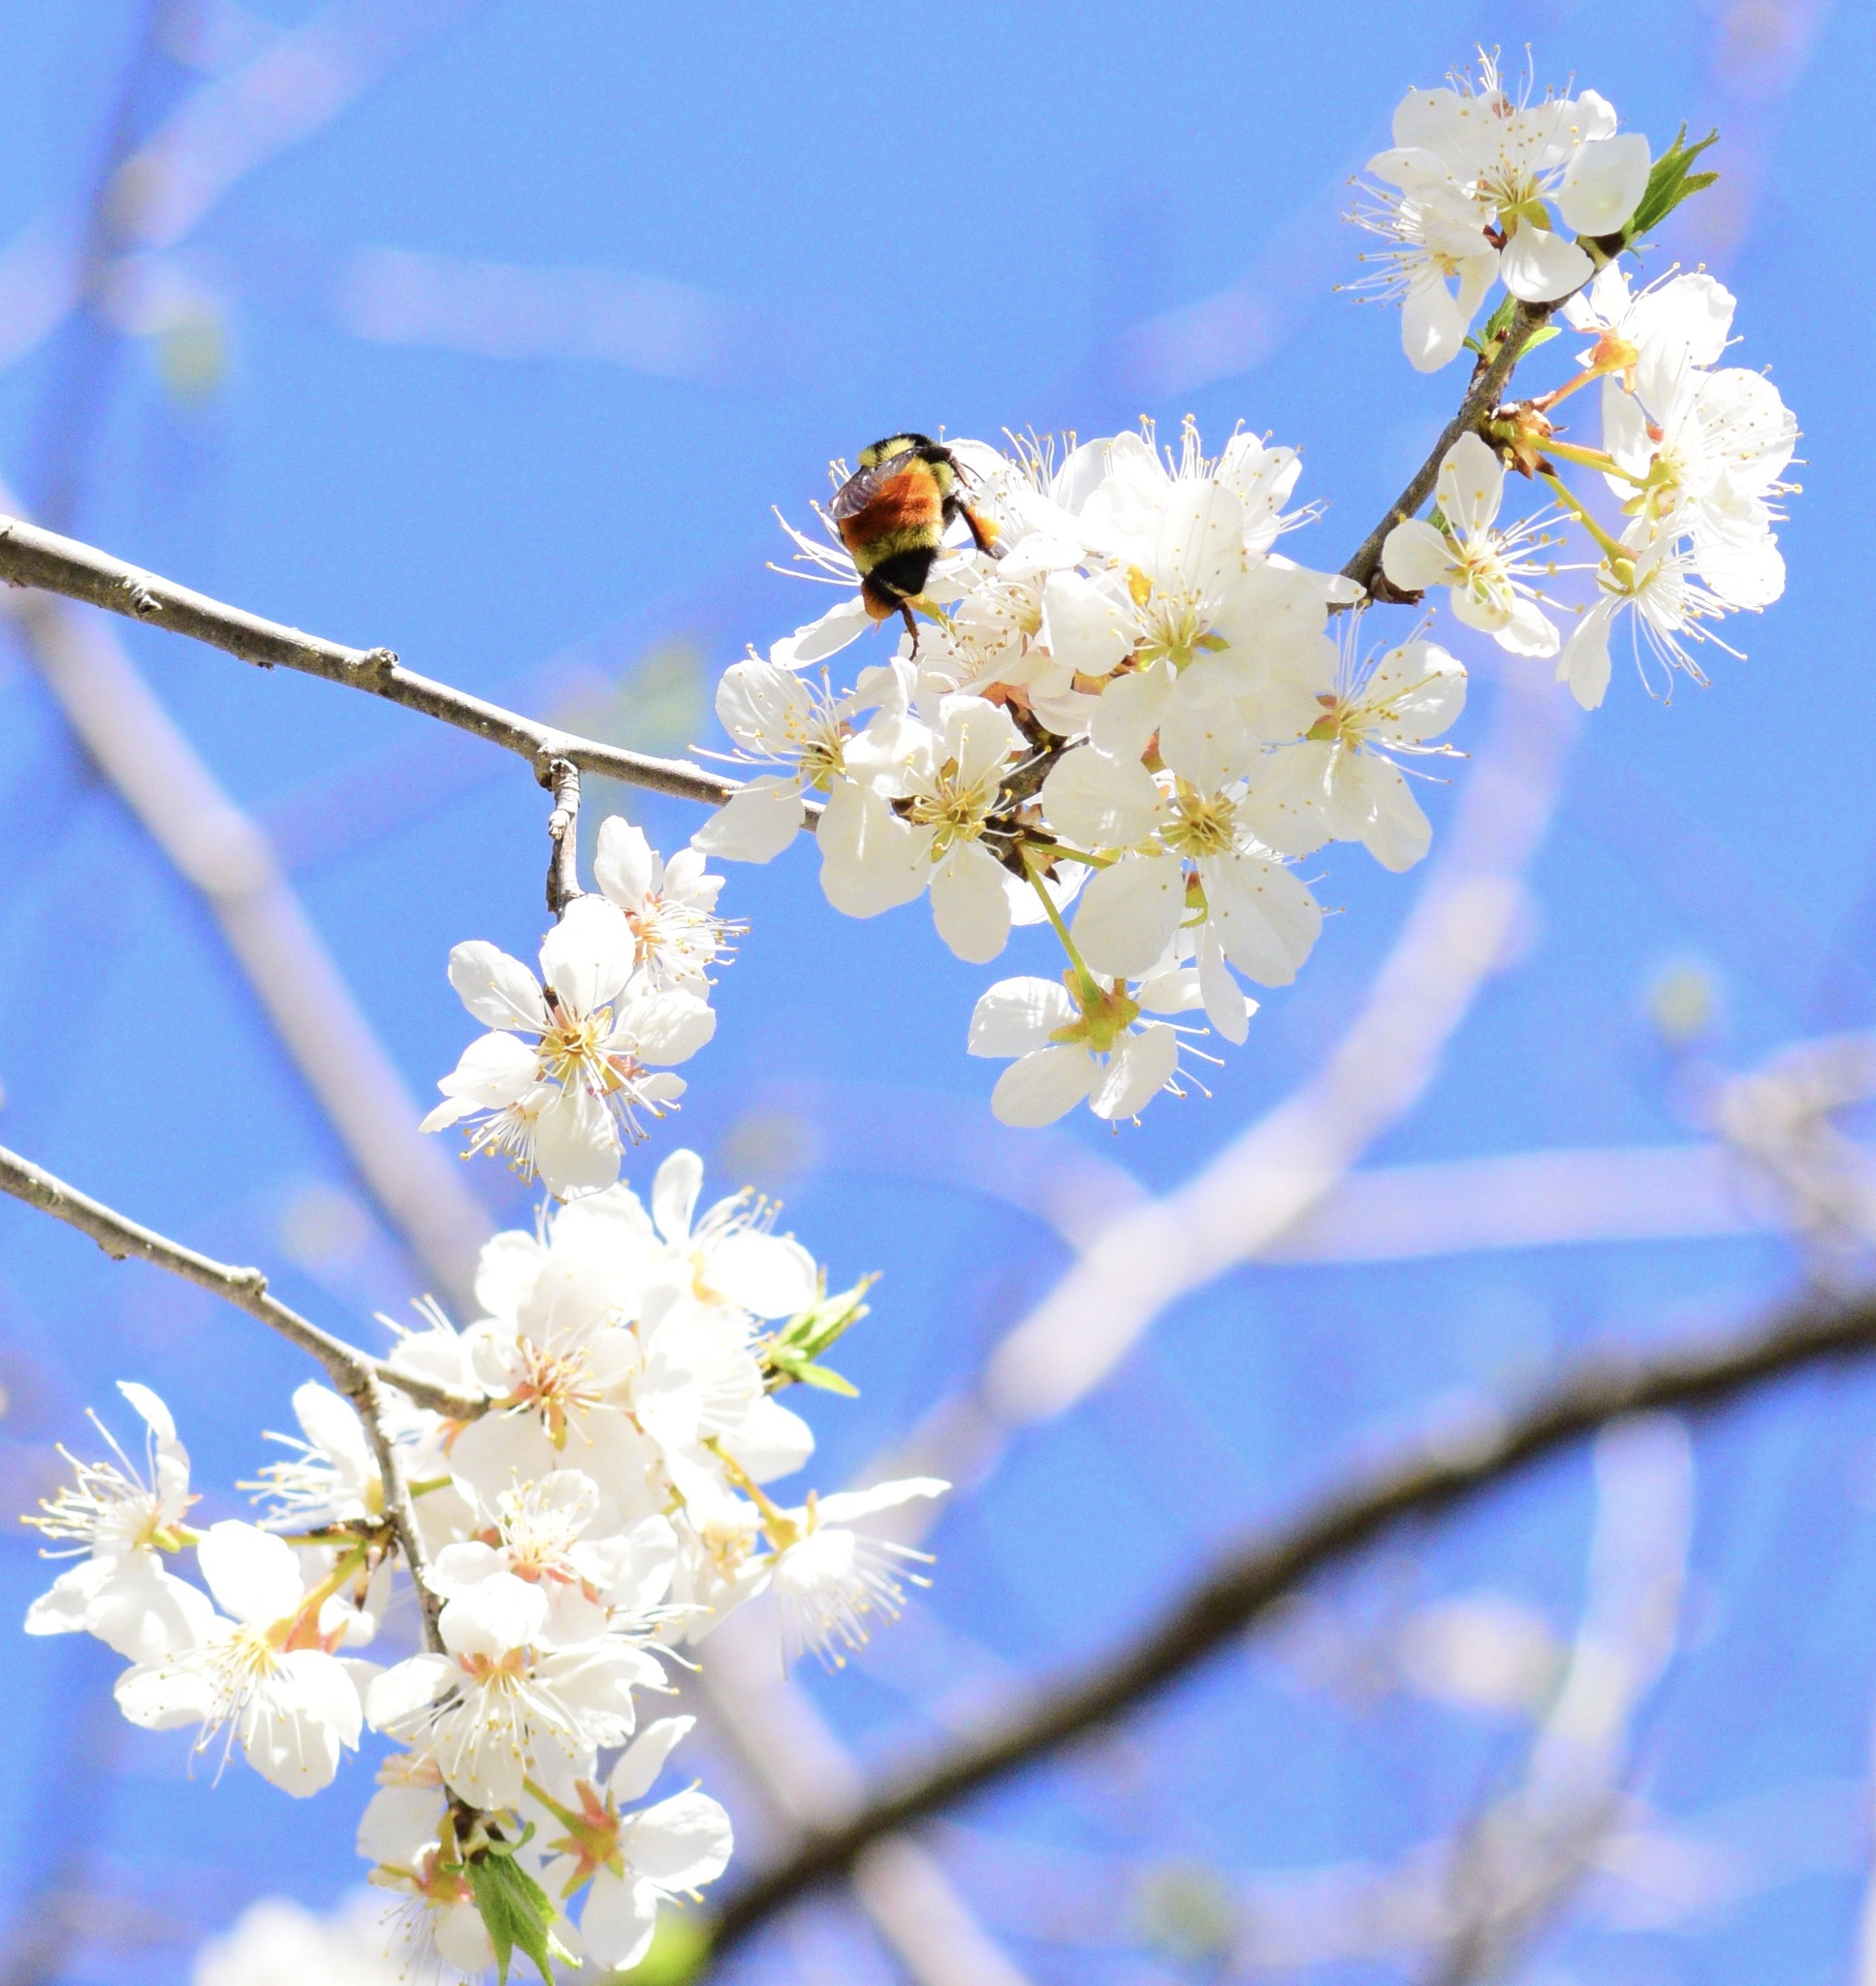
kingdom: Animalia
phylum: Arthropoda
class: Insecta
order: Hymenoptera
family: Apidae
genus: Bombus
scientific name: Bombus ternarius
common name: Tri-colored bumble bee
